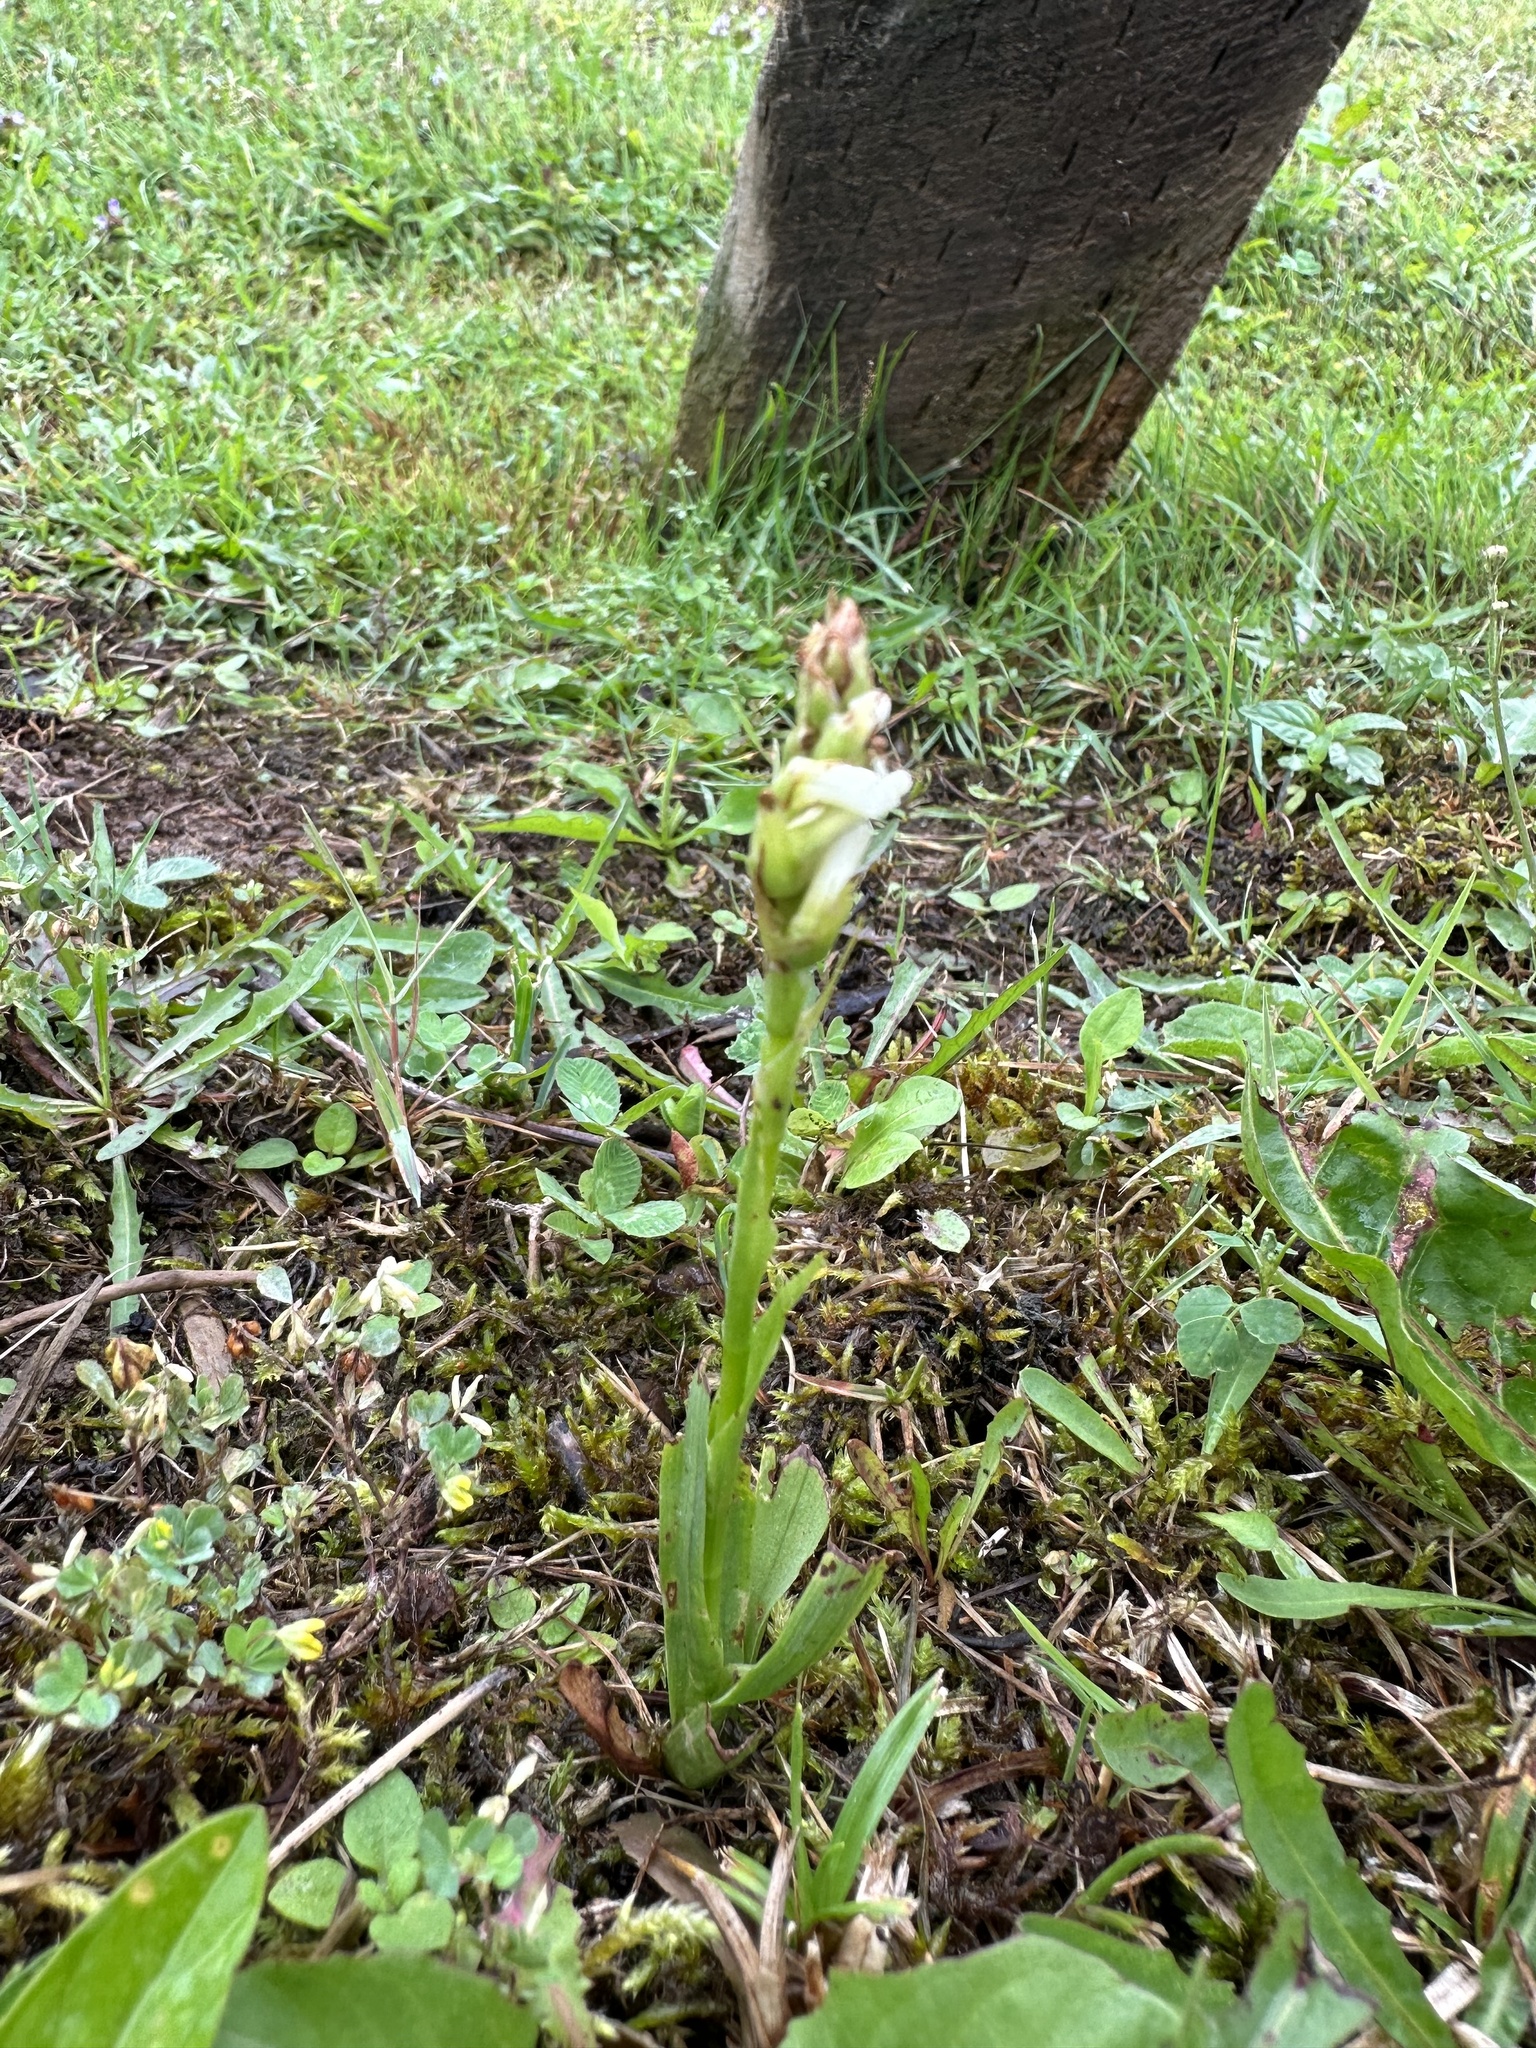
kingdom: Plantae
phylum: Tracheophyta
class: Liliopsida
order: Asparagales
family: Orchidaceae
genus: Spiranthes
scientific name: Spiranthes romanzoffiana
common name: Irish lady's-tresses
